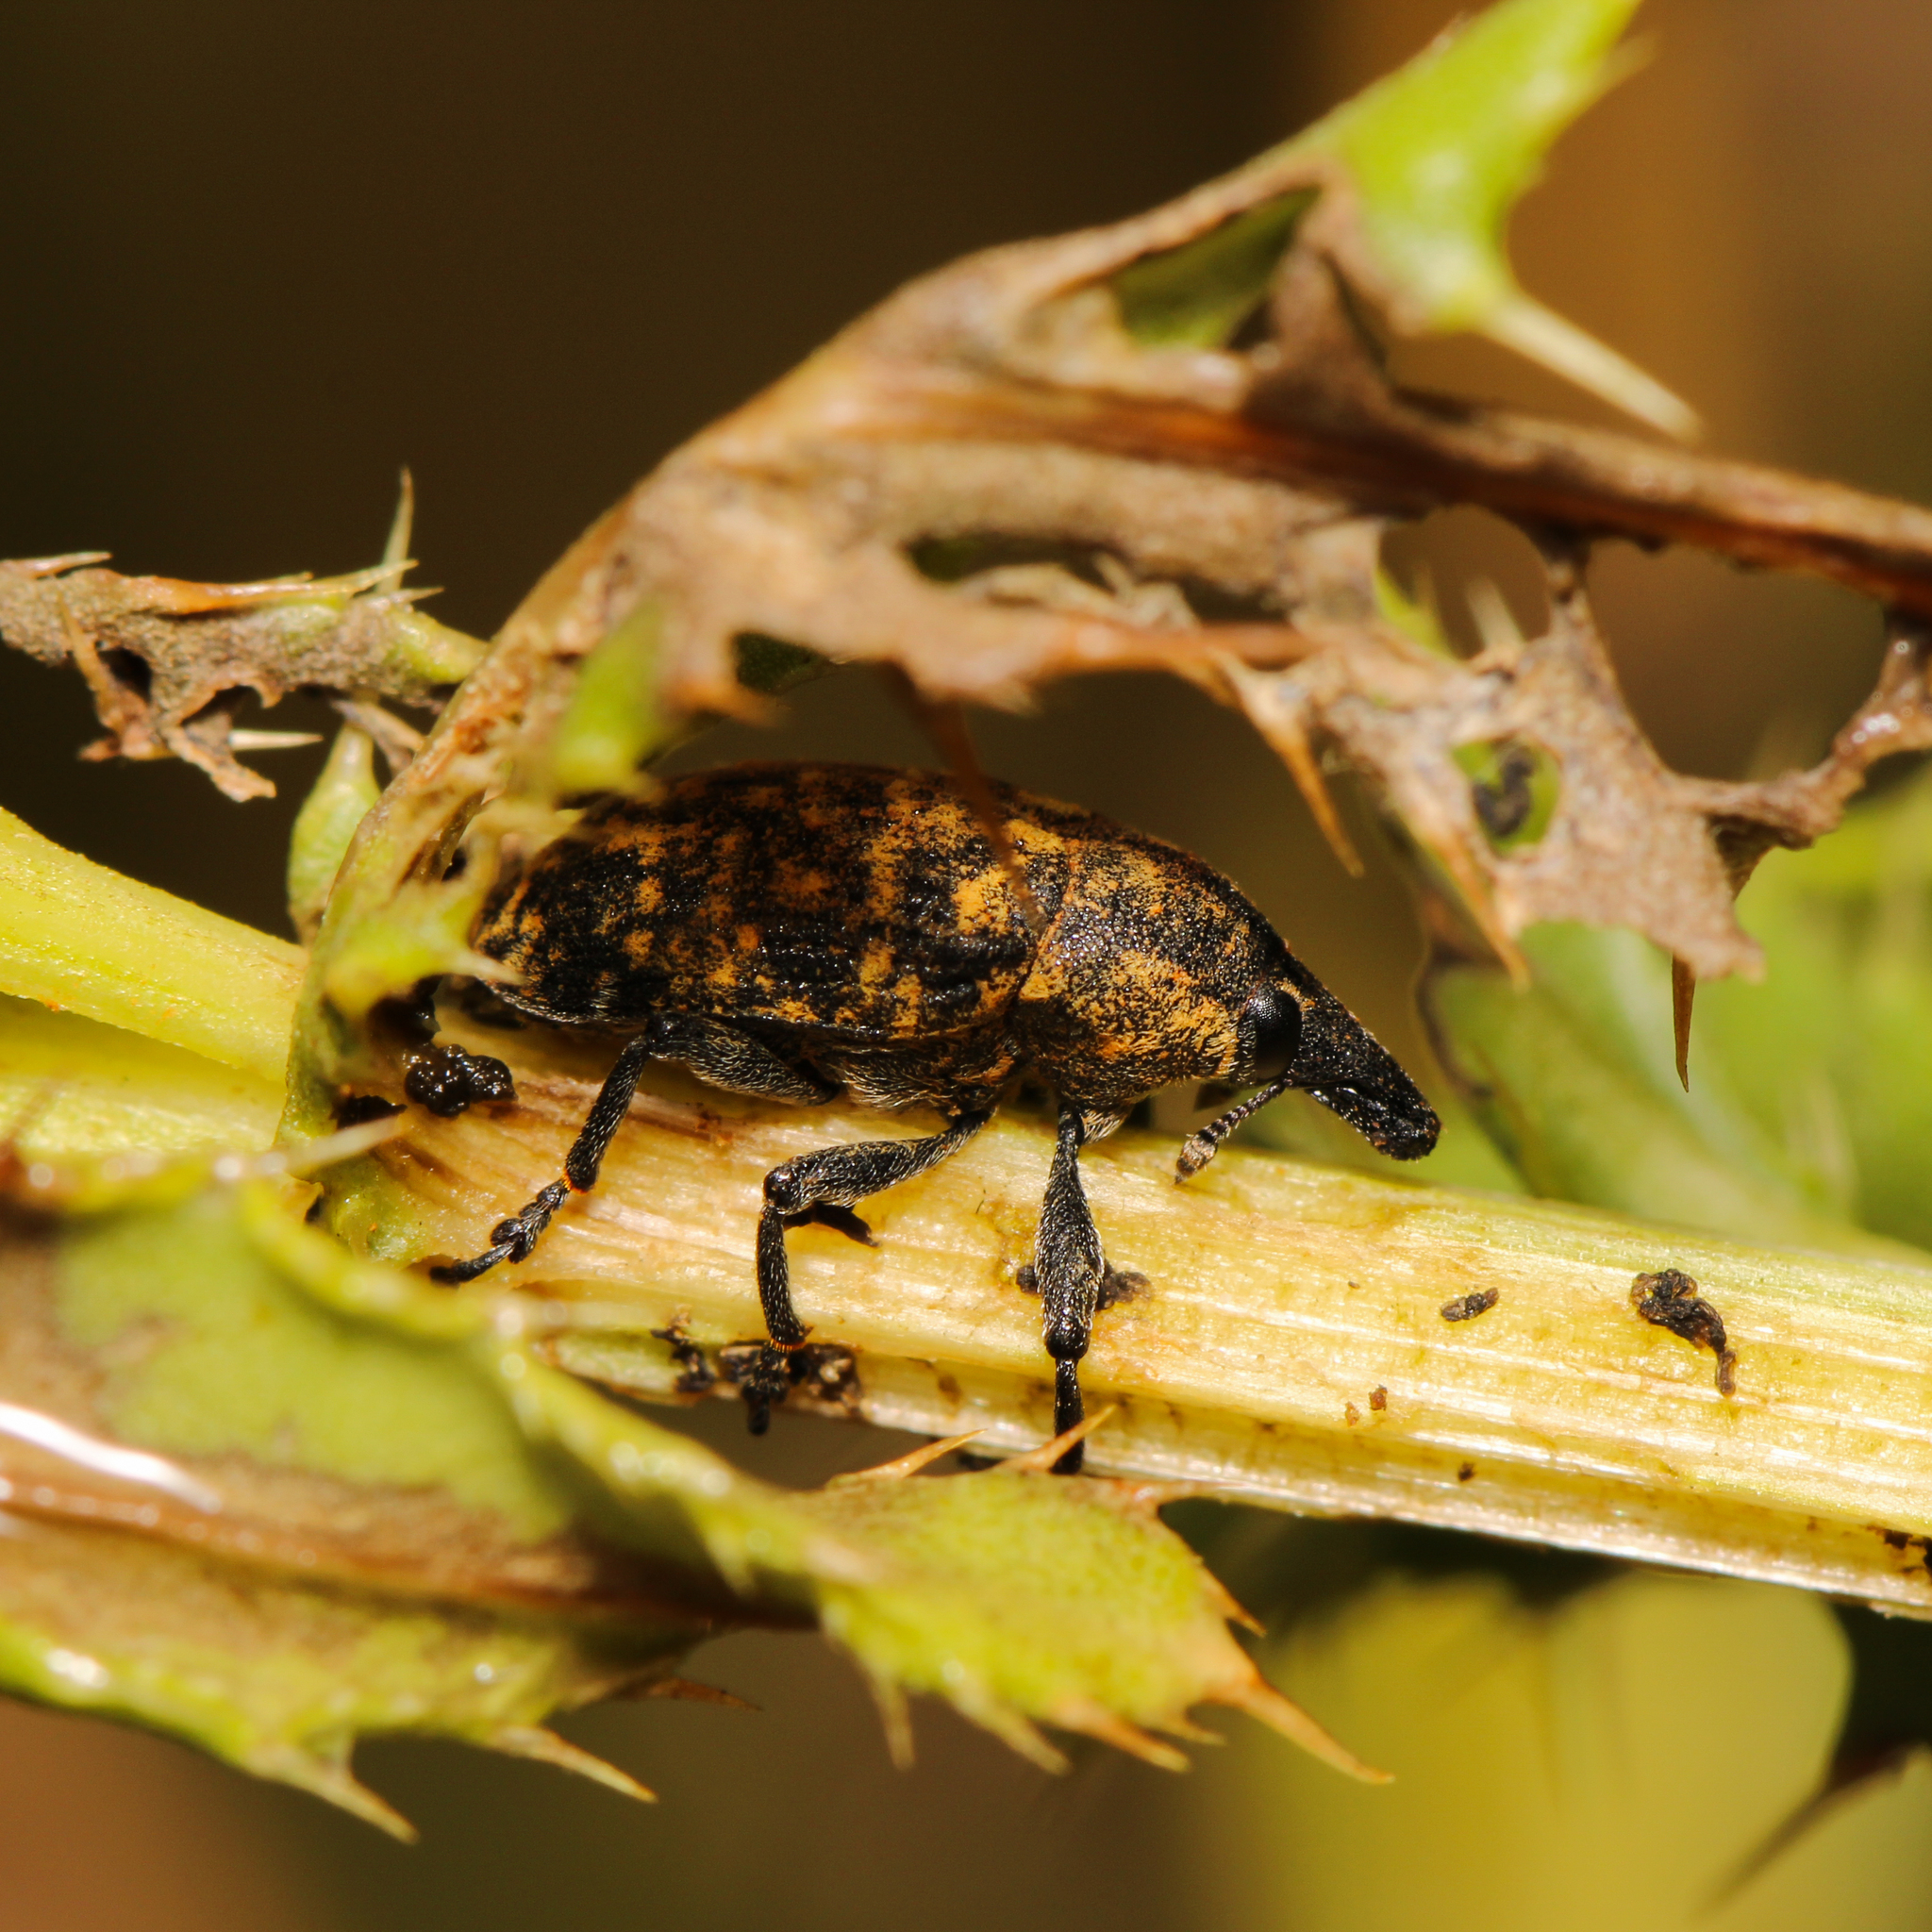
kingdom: Animalia
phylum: Arthropoda
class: Insecta
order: Coleoptera
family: Curculionidae
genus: Larinus
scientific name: Larinus turbinatus
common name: Weevil
